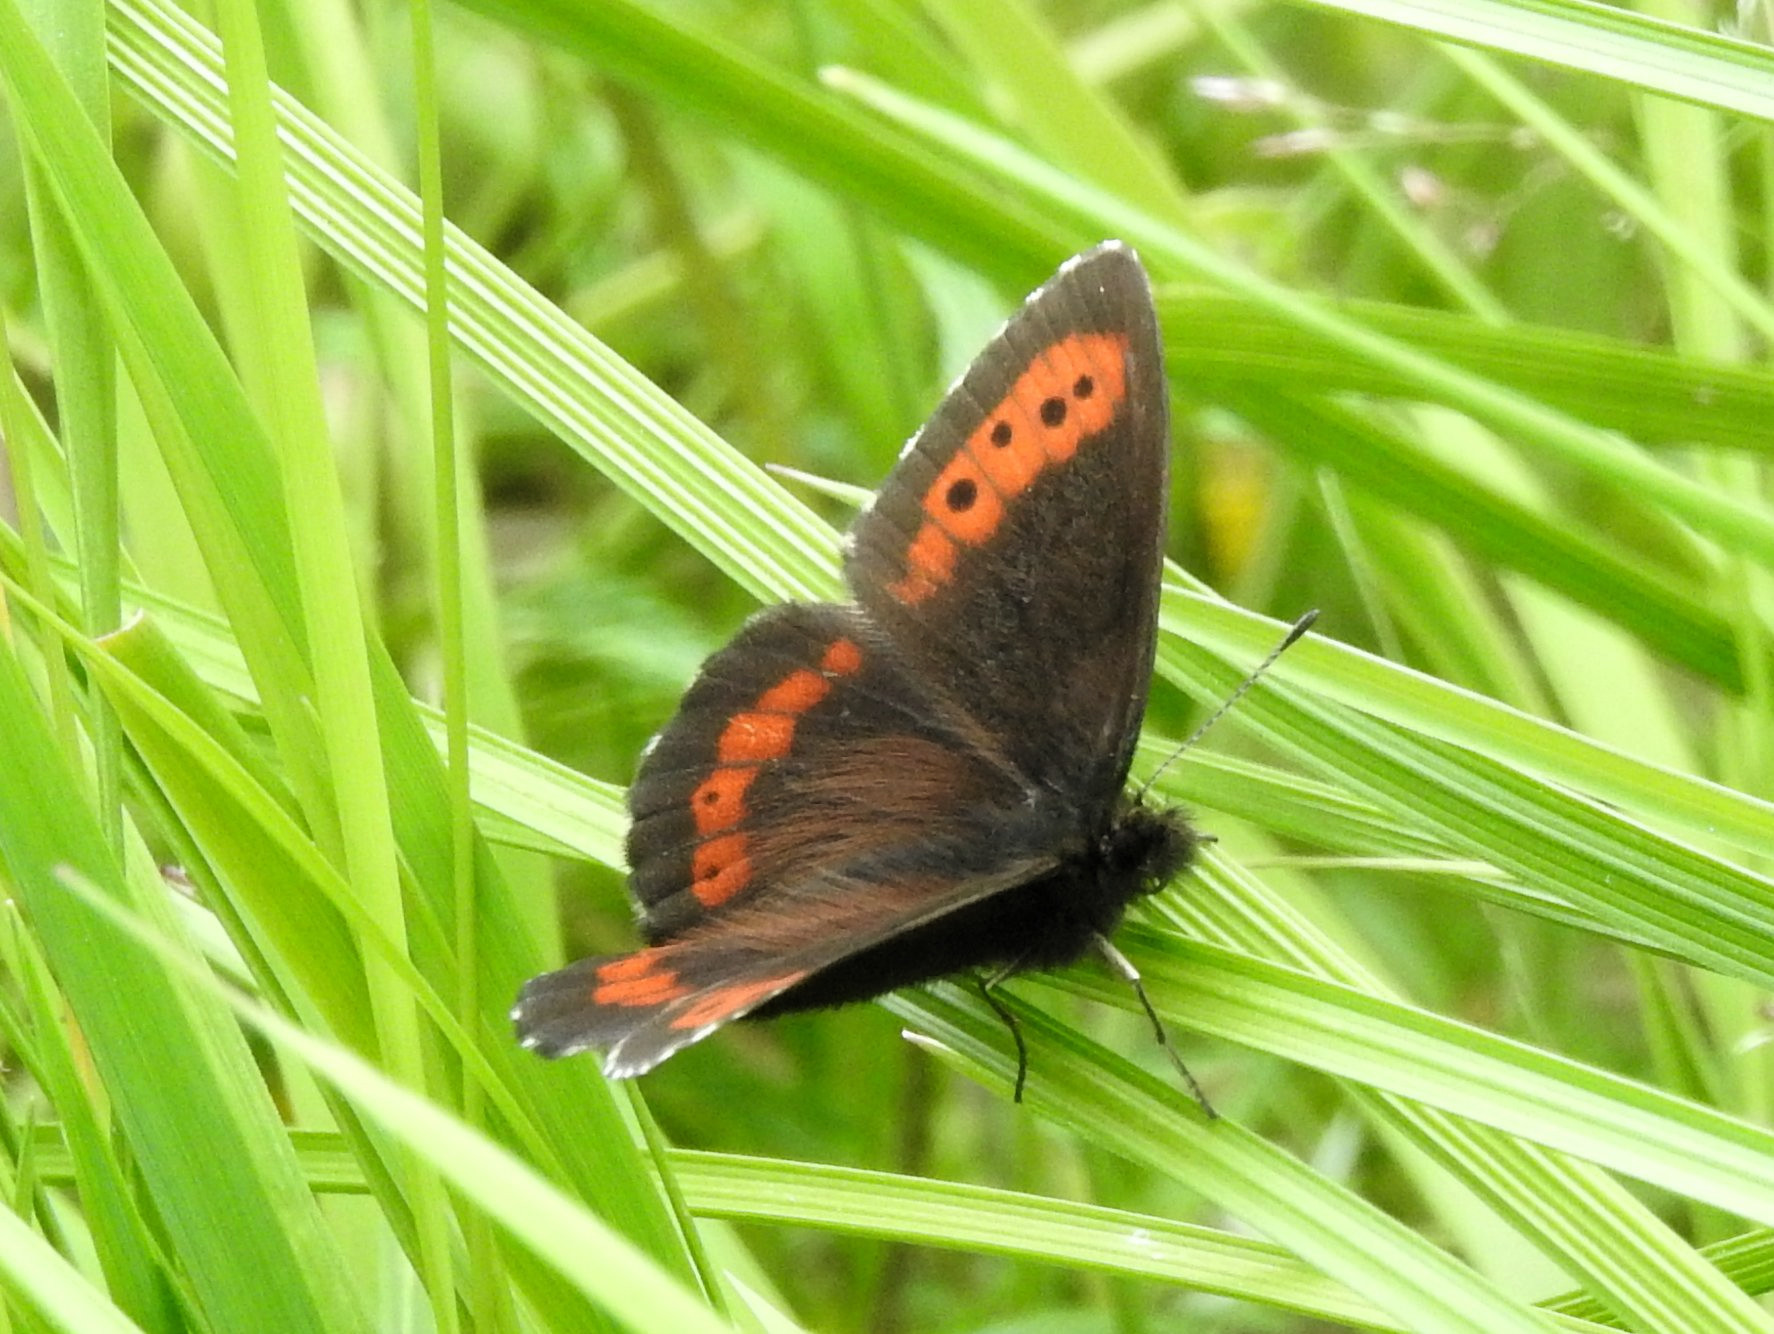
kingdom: Animalia
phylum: Arthropoda
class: Insecta
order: Lepidoptera
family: Nymphalidae
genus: Erebia
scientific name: Erebia ligea
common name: Arran brown
